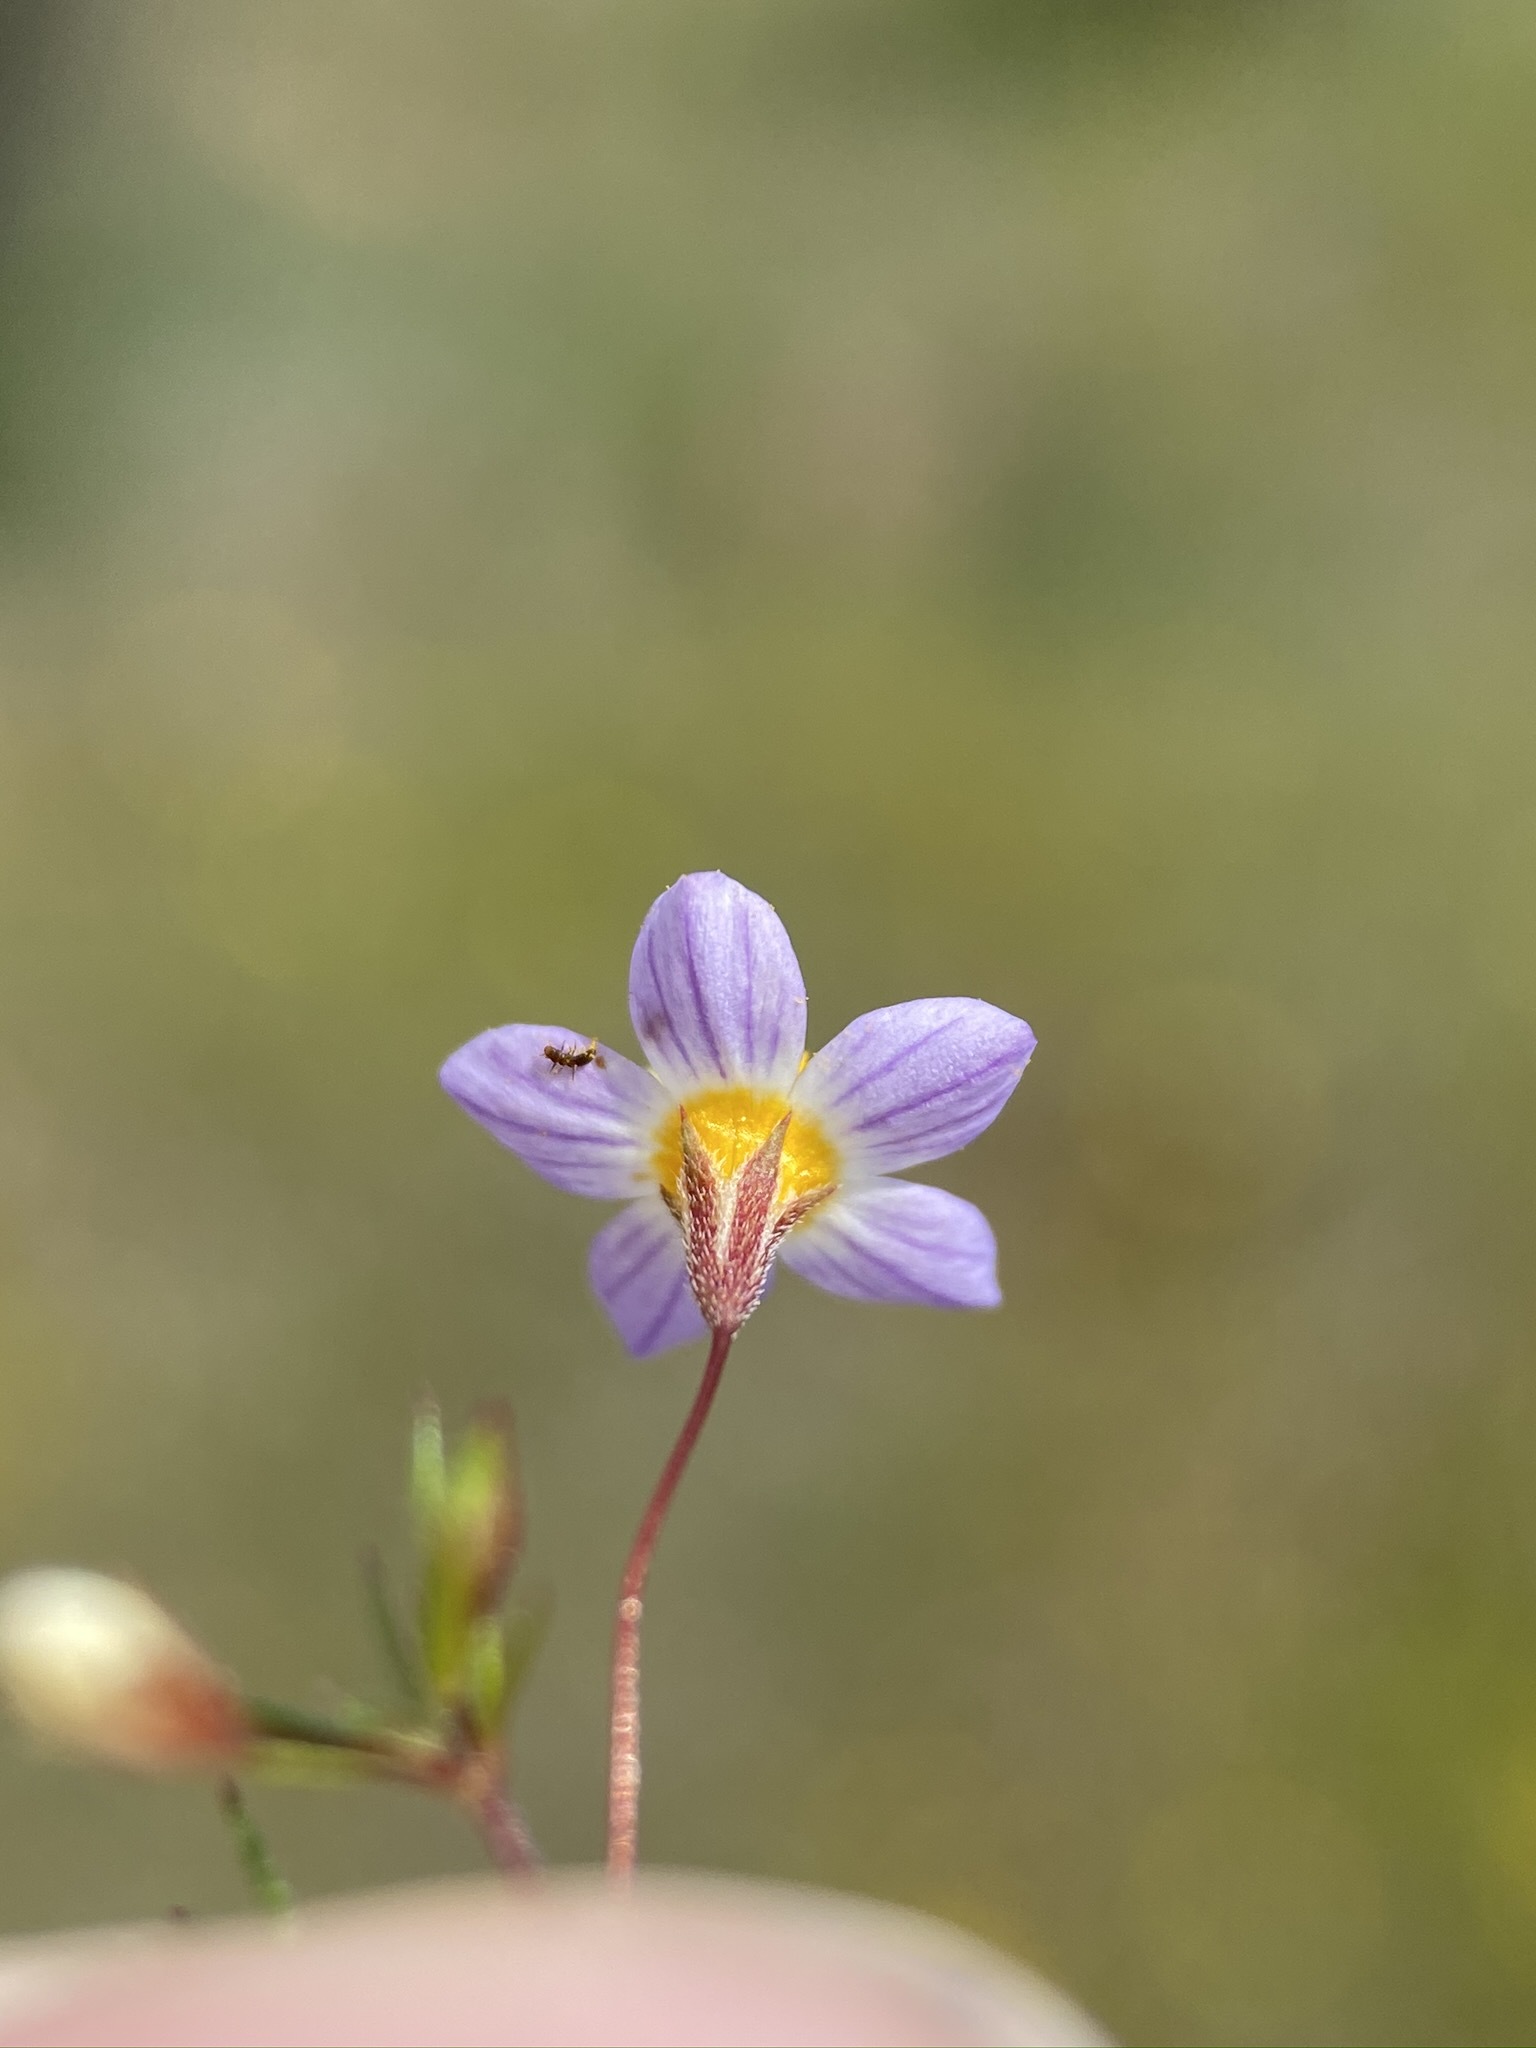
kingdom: Plantae
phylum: Tracheophyta
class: Magnoliopsida
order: Ericales
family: Polemoniaceae
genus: Leptosiphon
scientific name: Leptosiphon filipes
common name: Thread linanthus
